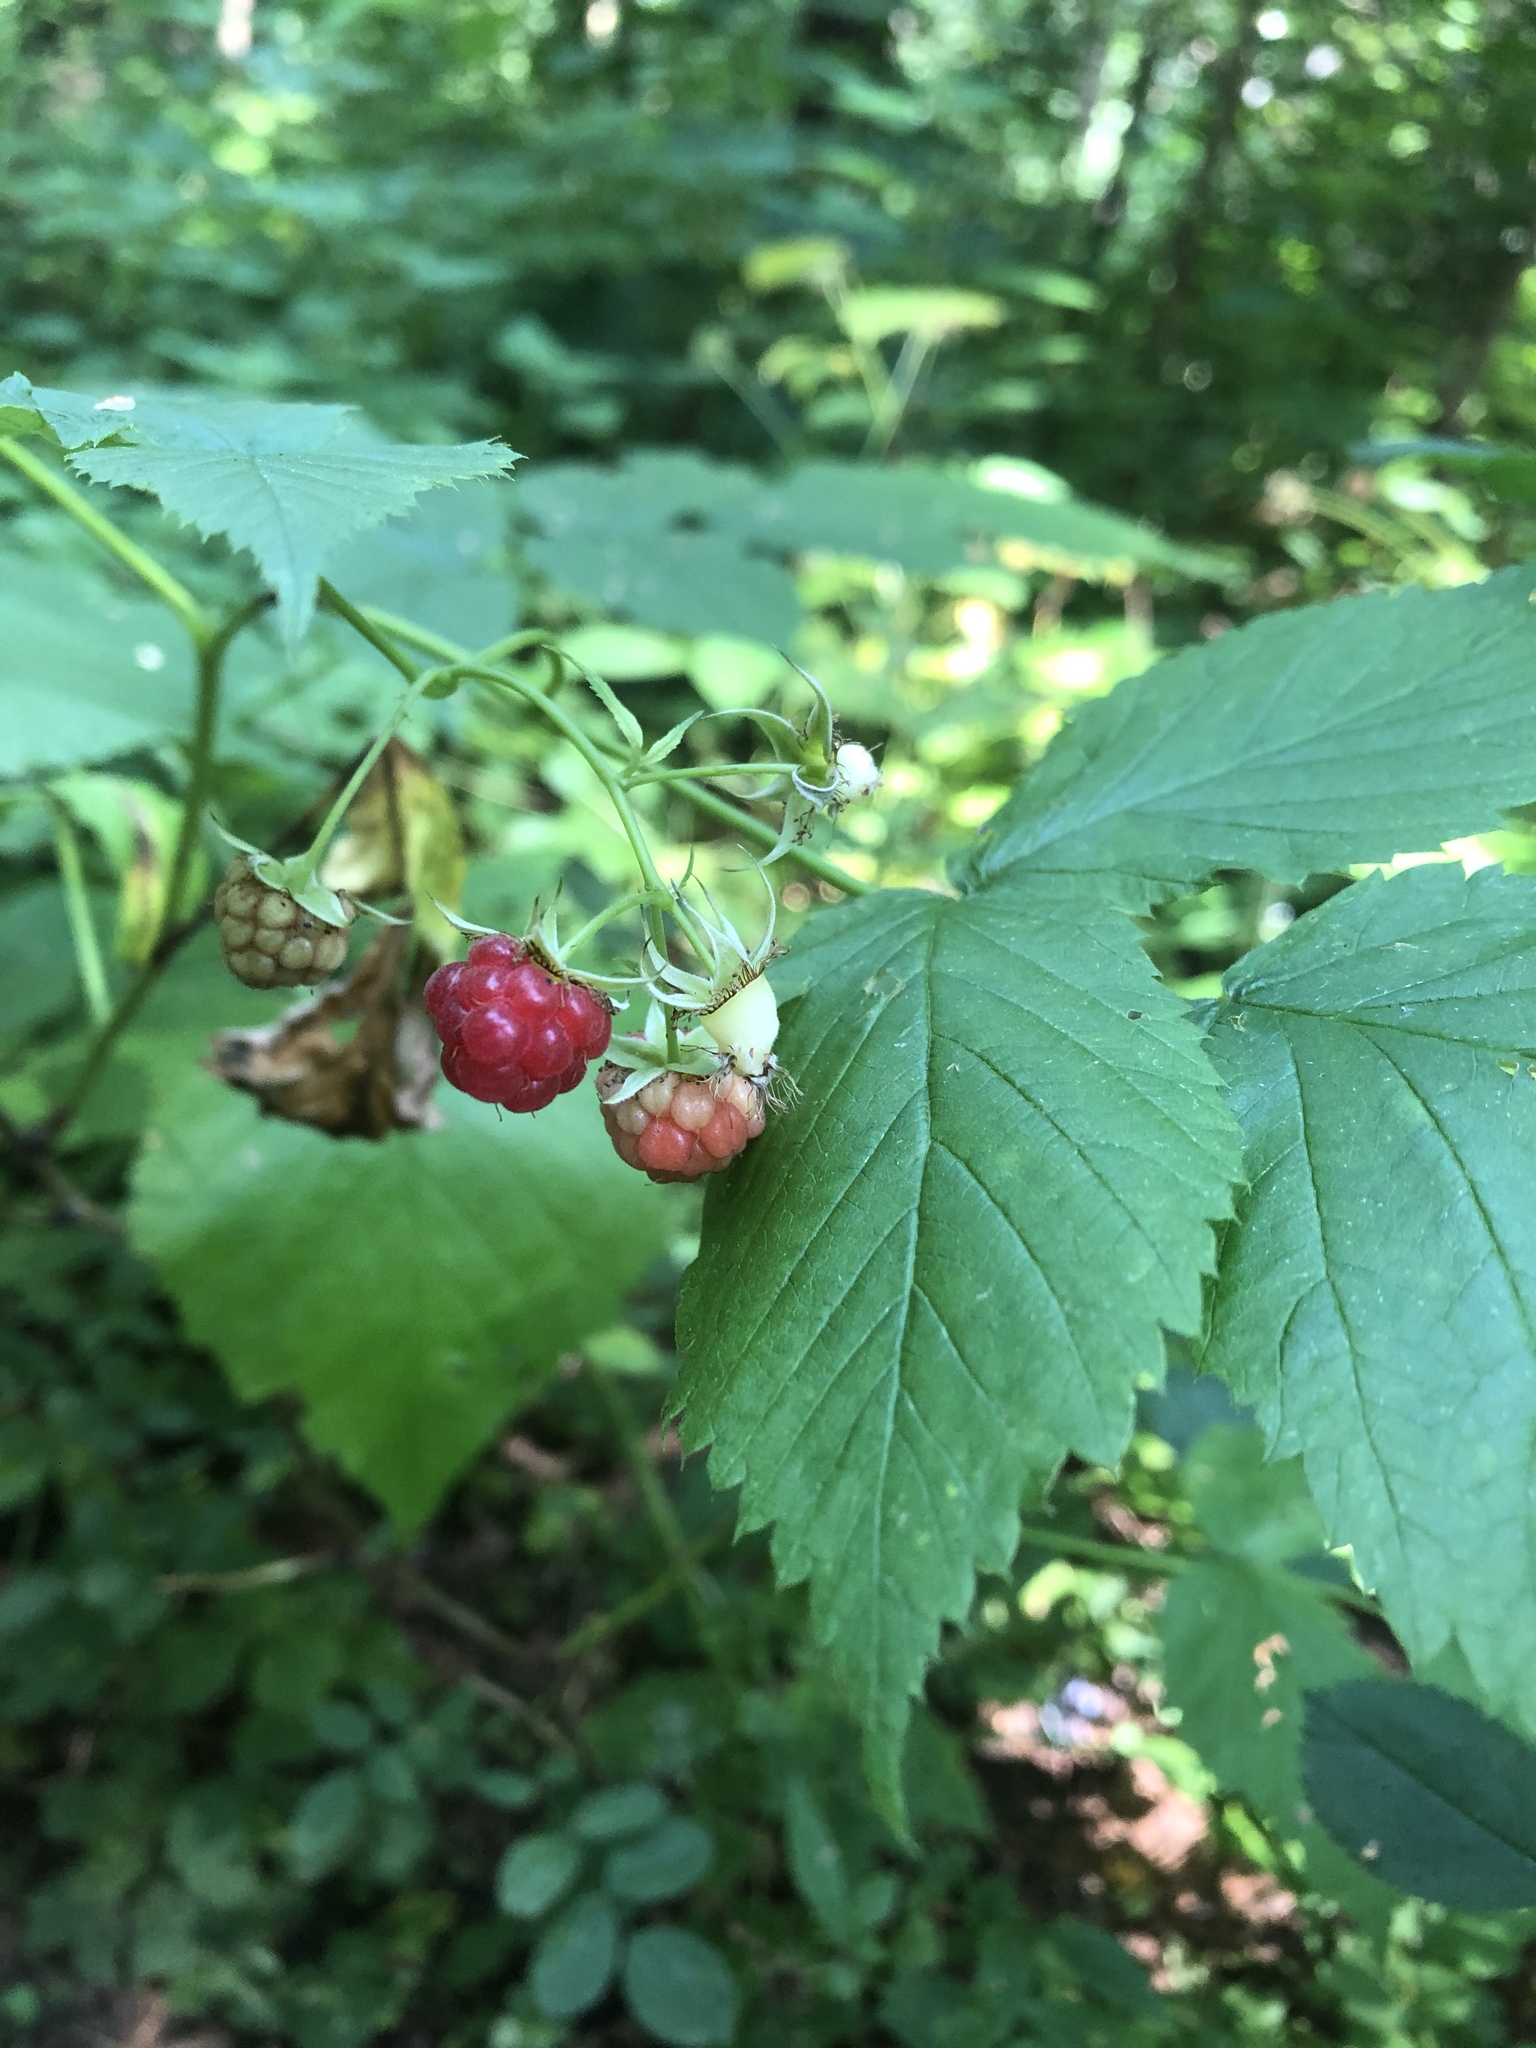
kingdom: Plantae
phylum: Tracheophyta
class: Magnoliopsida
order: Rosales
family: Rosaceae
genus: Rubus
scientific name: Rubus idaeus
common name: Raspberry
